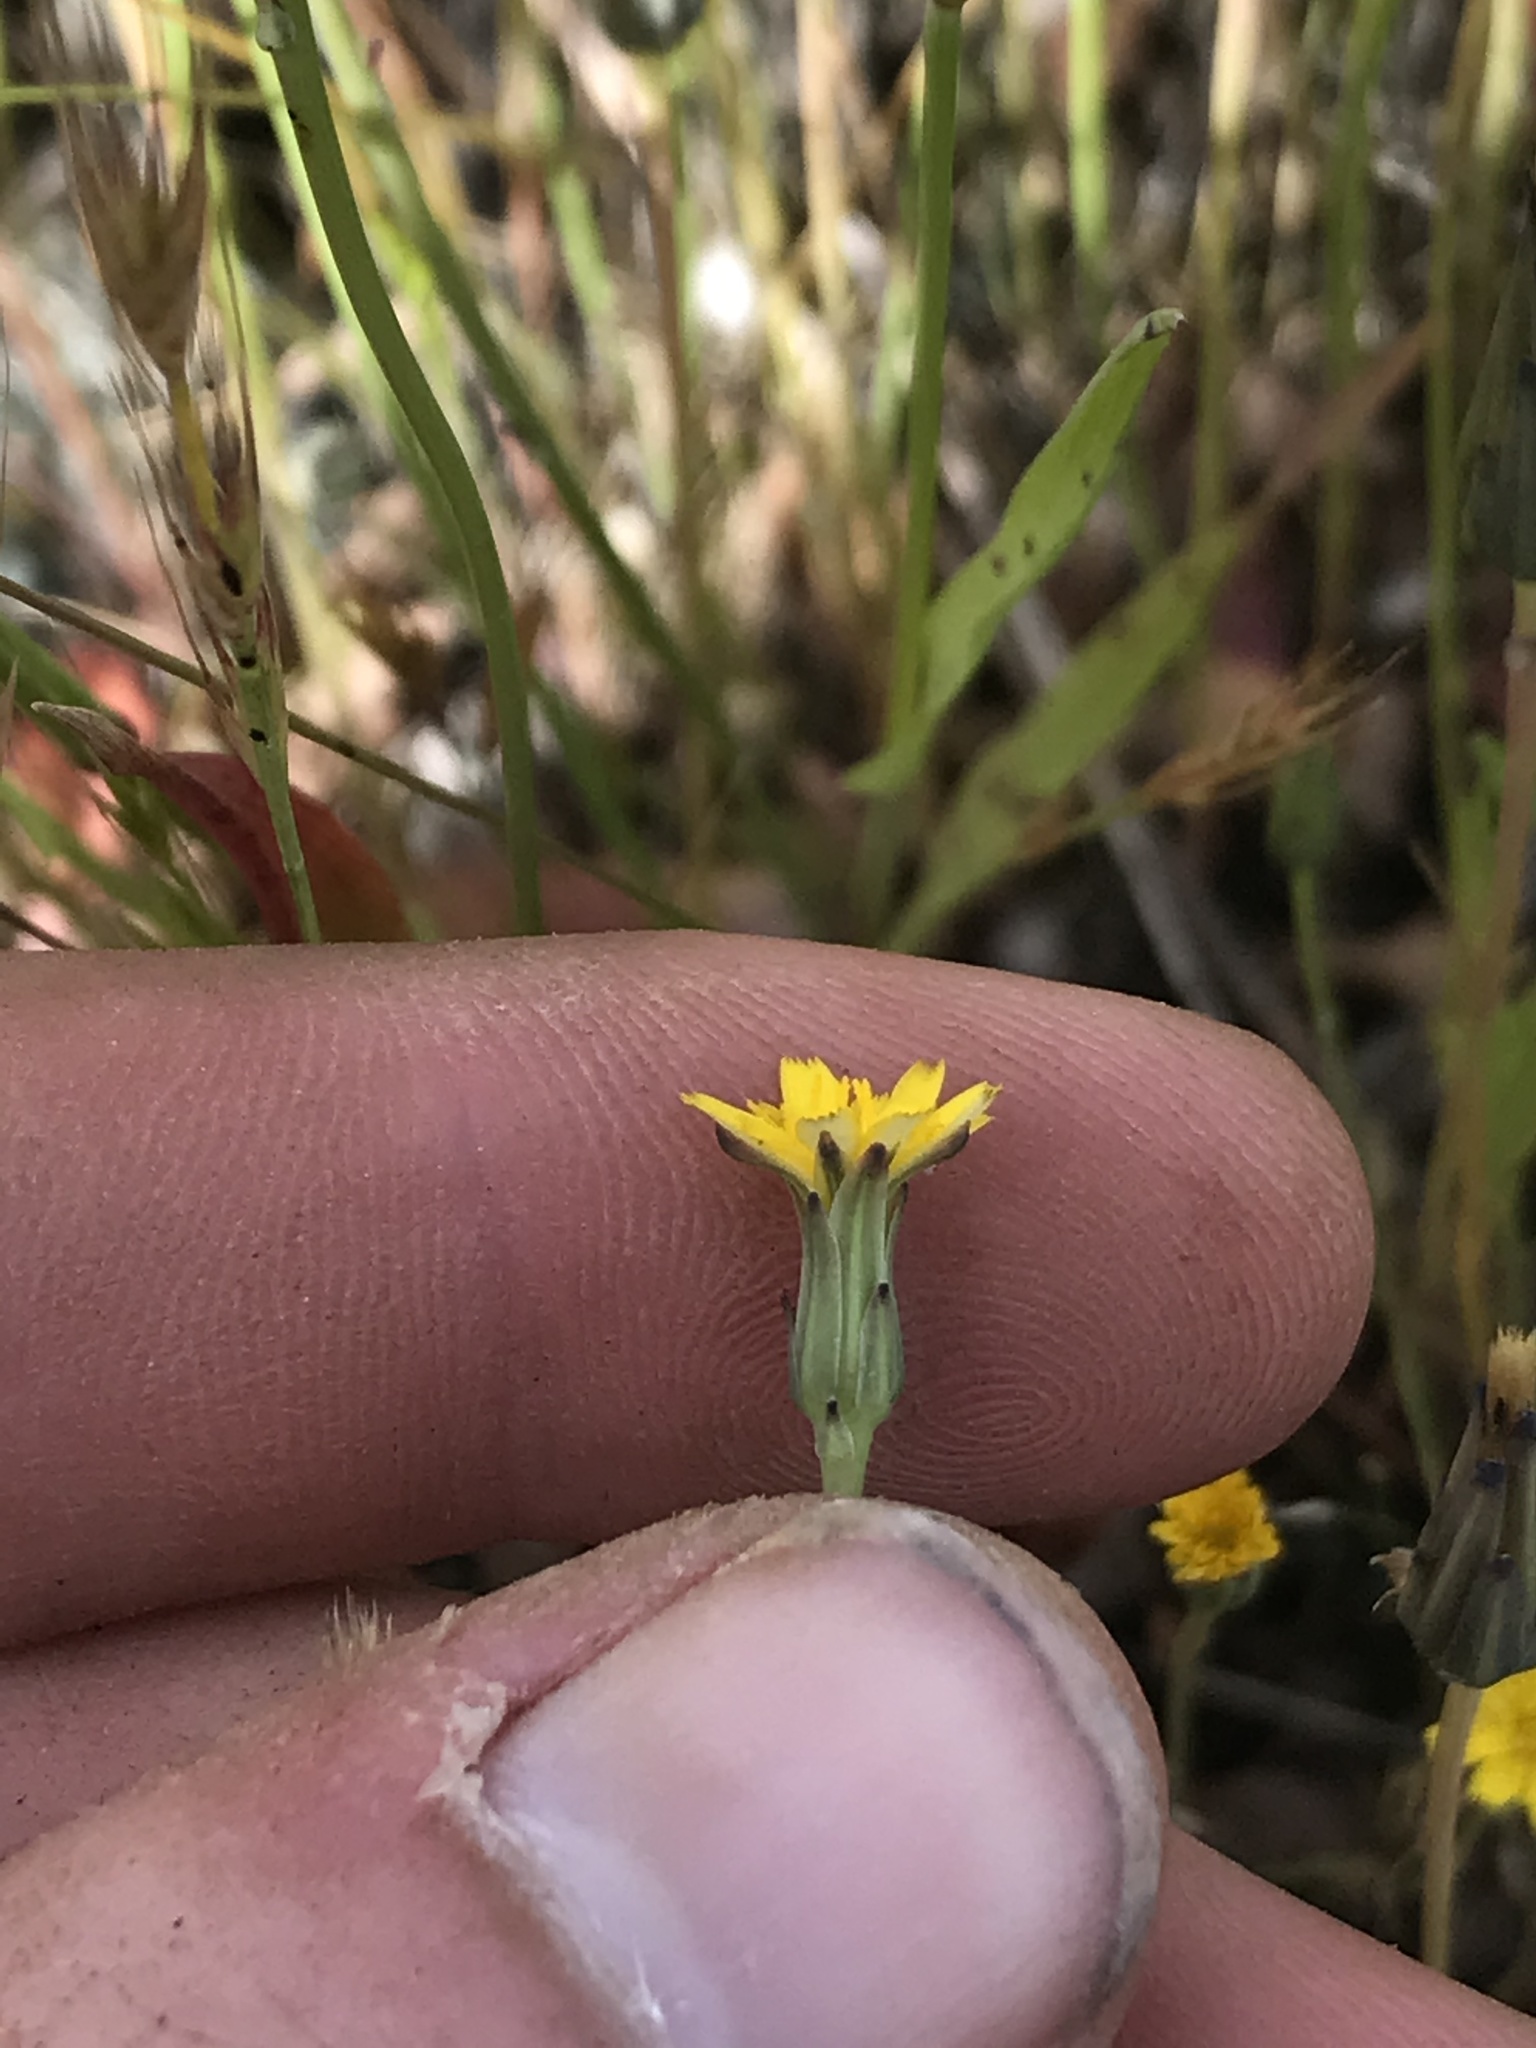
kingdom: Plantae
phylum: Tracheophyta
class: Magnoliopsida
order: Asterales
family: Asteraceae
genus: Hypochaeris
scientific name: Hypochaeris glabra
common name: Smooth catsear
